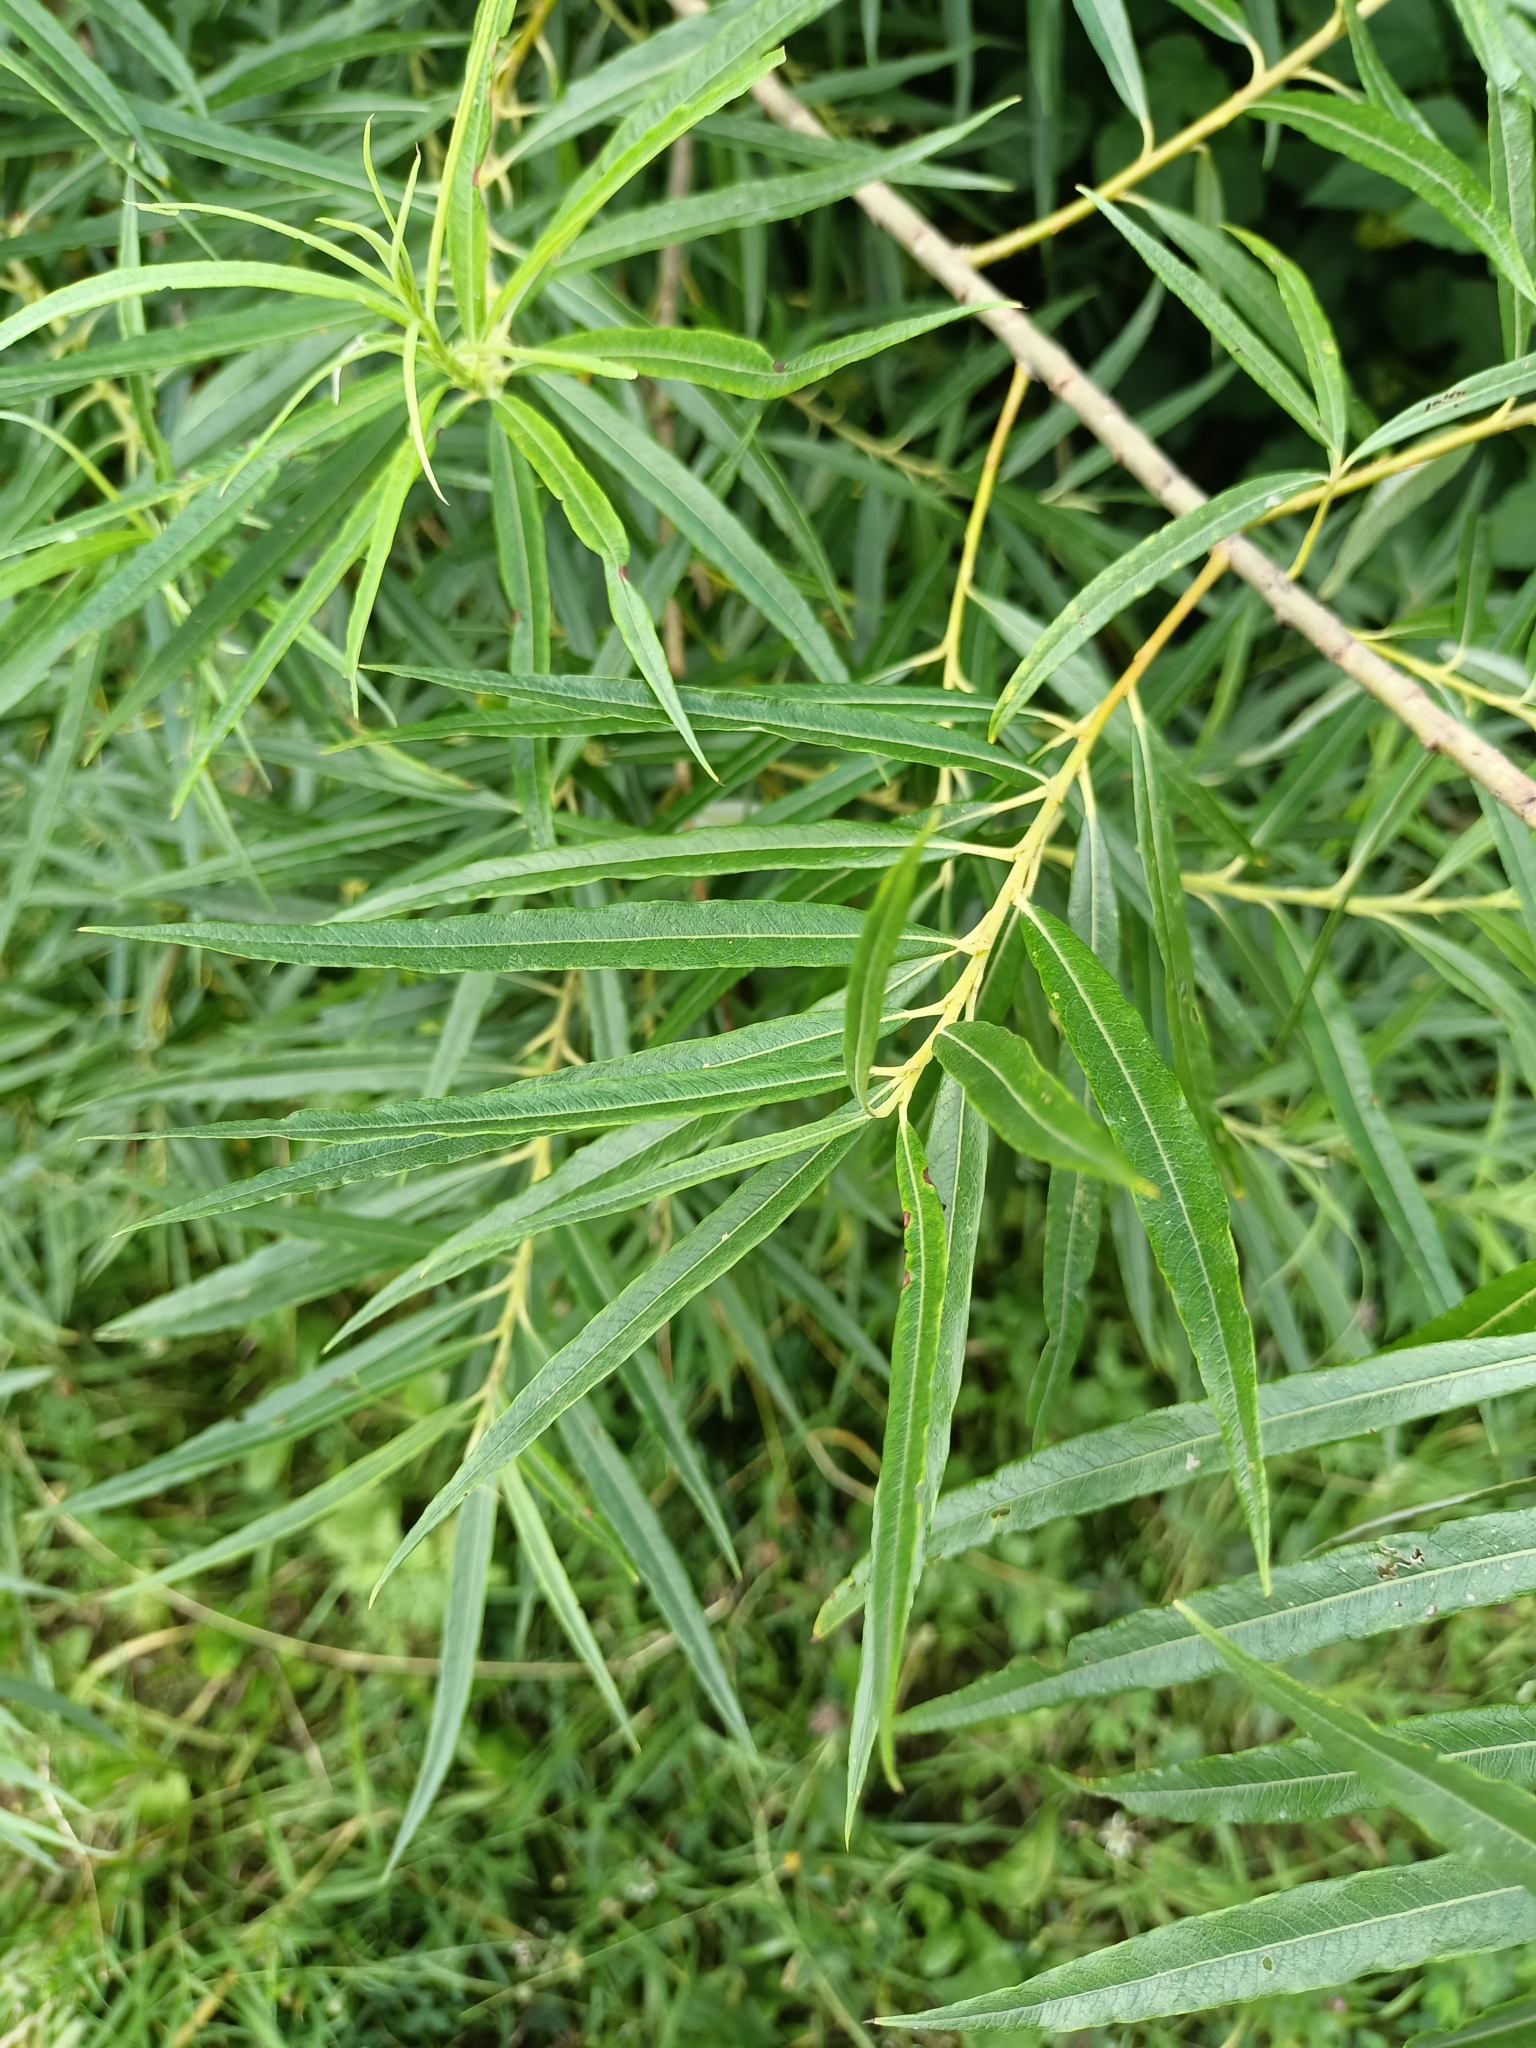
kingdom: Plantae
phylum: Tracheophyta
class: Magnoliopsida
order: Malpighiales
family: Salicaceae
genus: Salix
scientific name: Salix viminalis
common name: Osier
